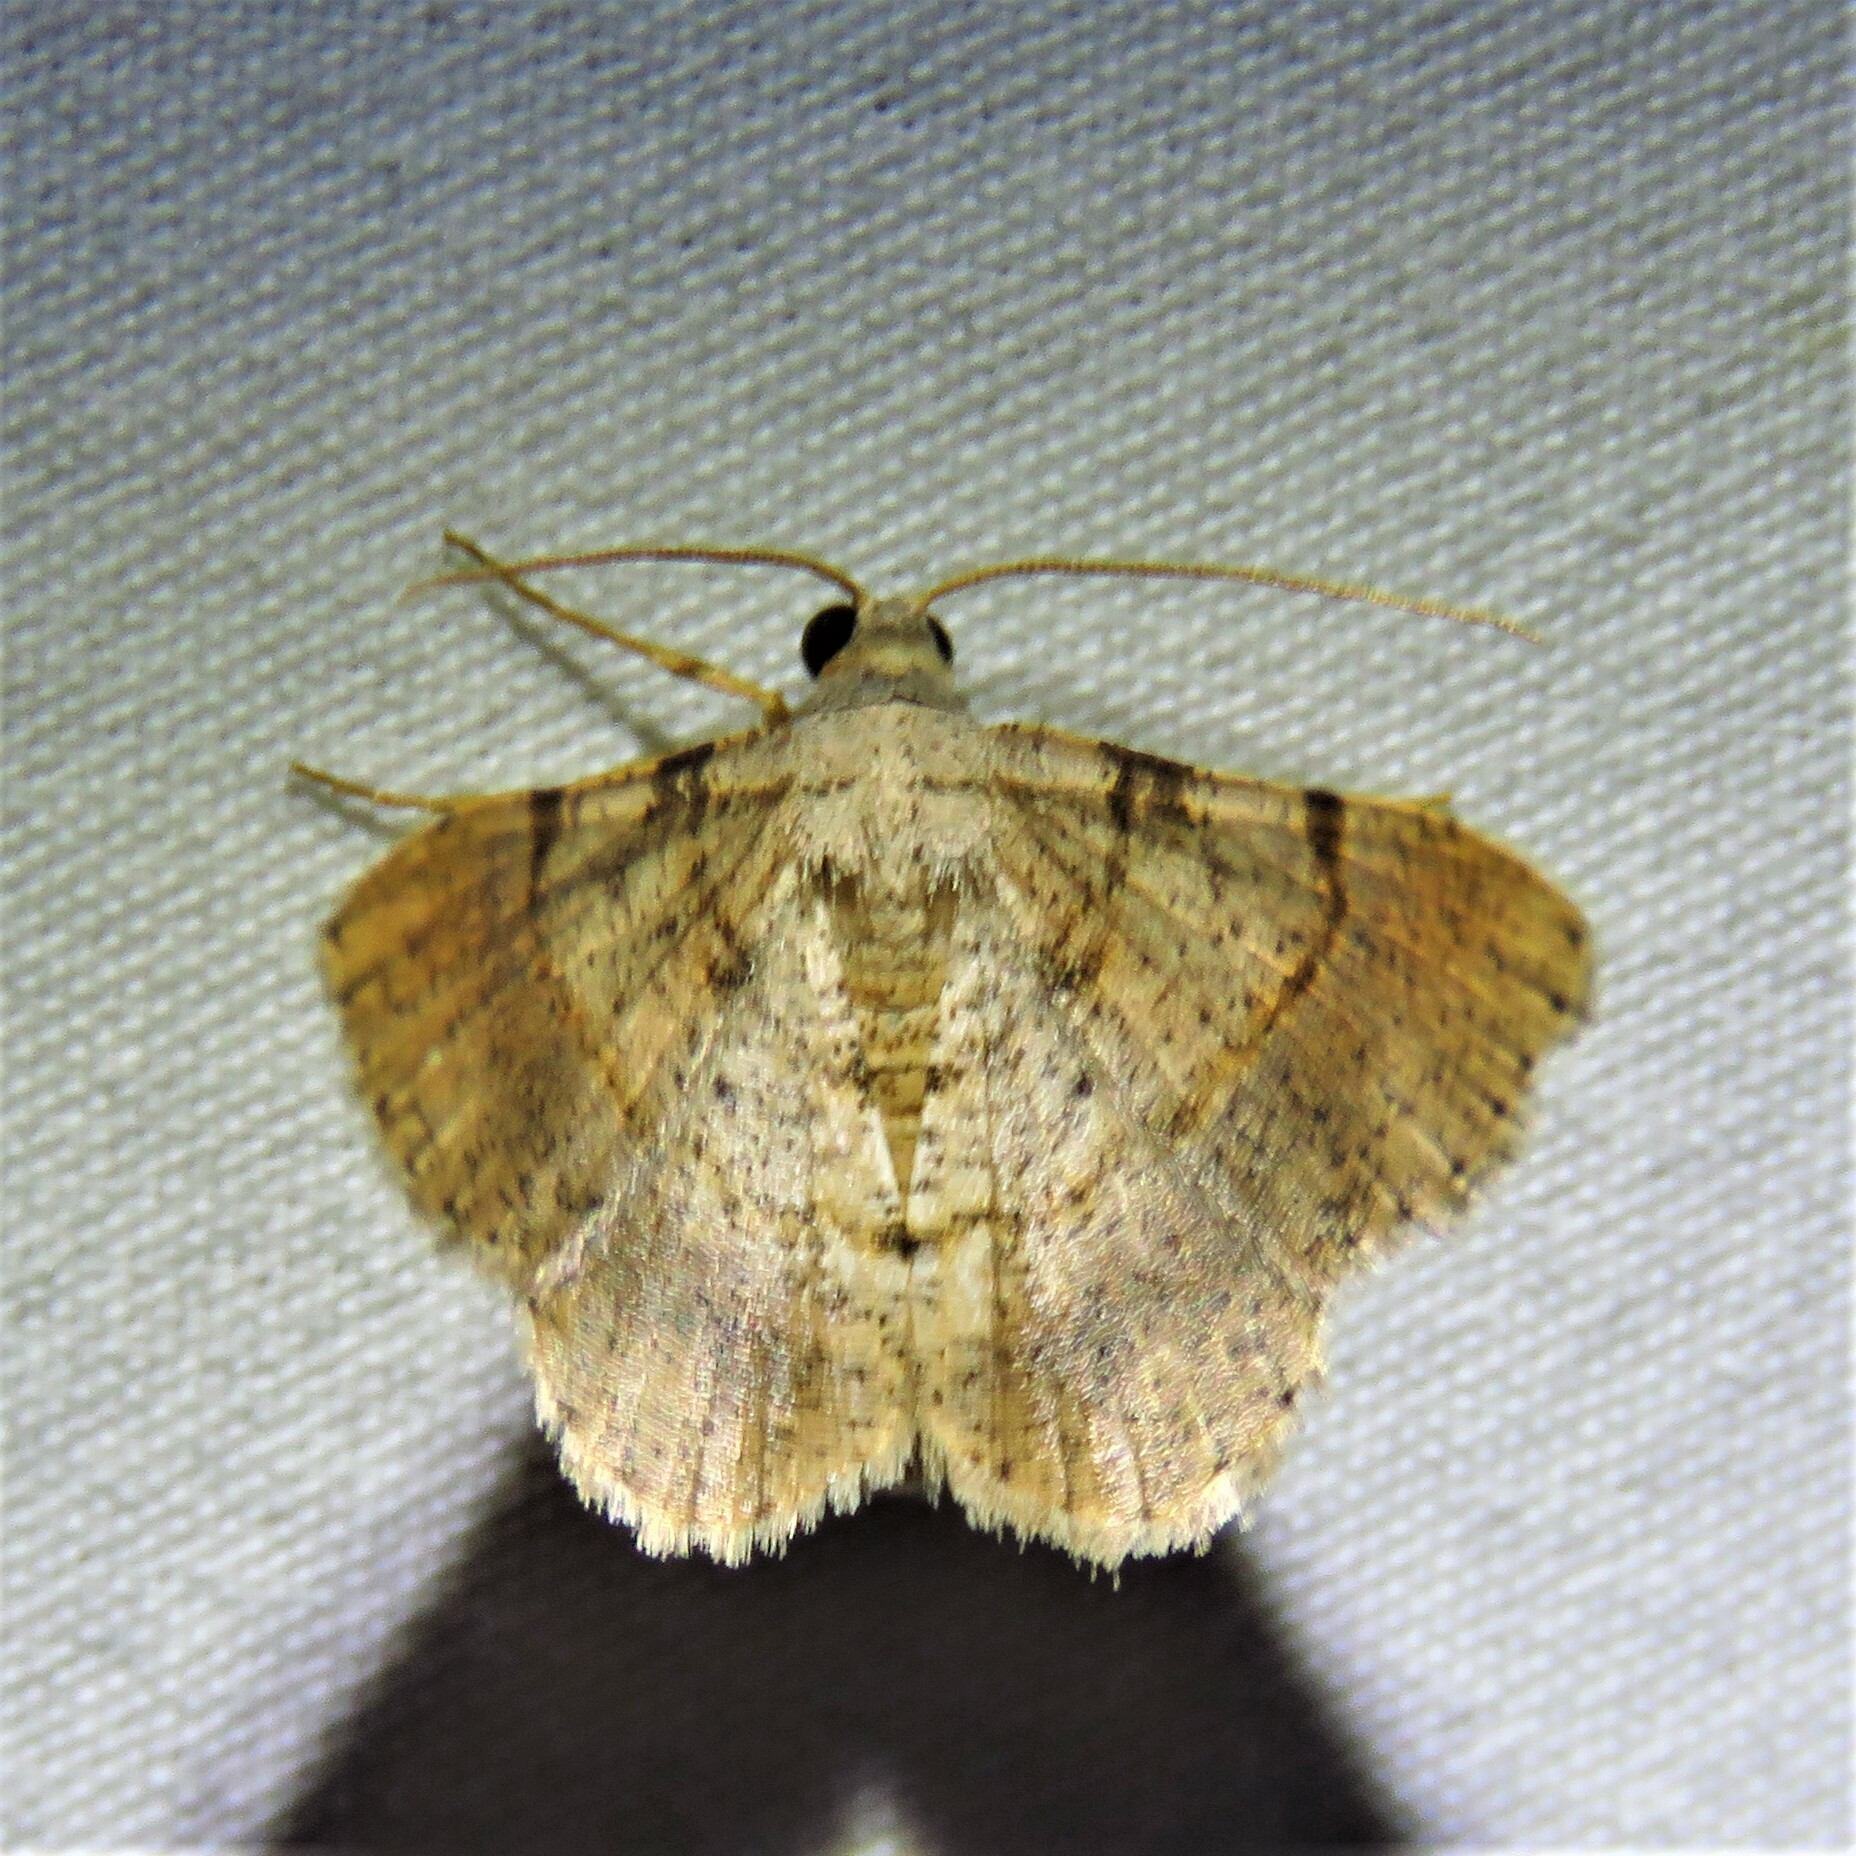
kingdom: Animalia
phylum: Arthropoda
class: Insecta
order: Lepidoptera
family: Geometridae
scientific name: Geometridae
